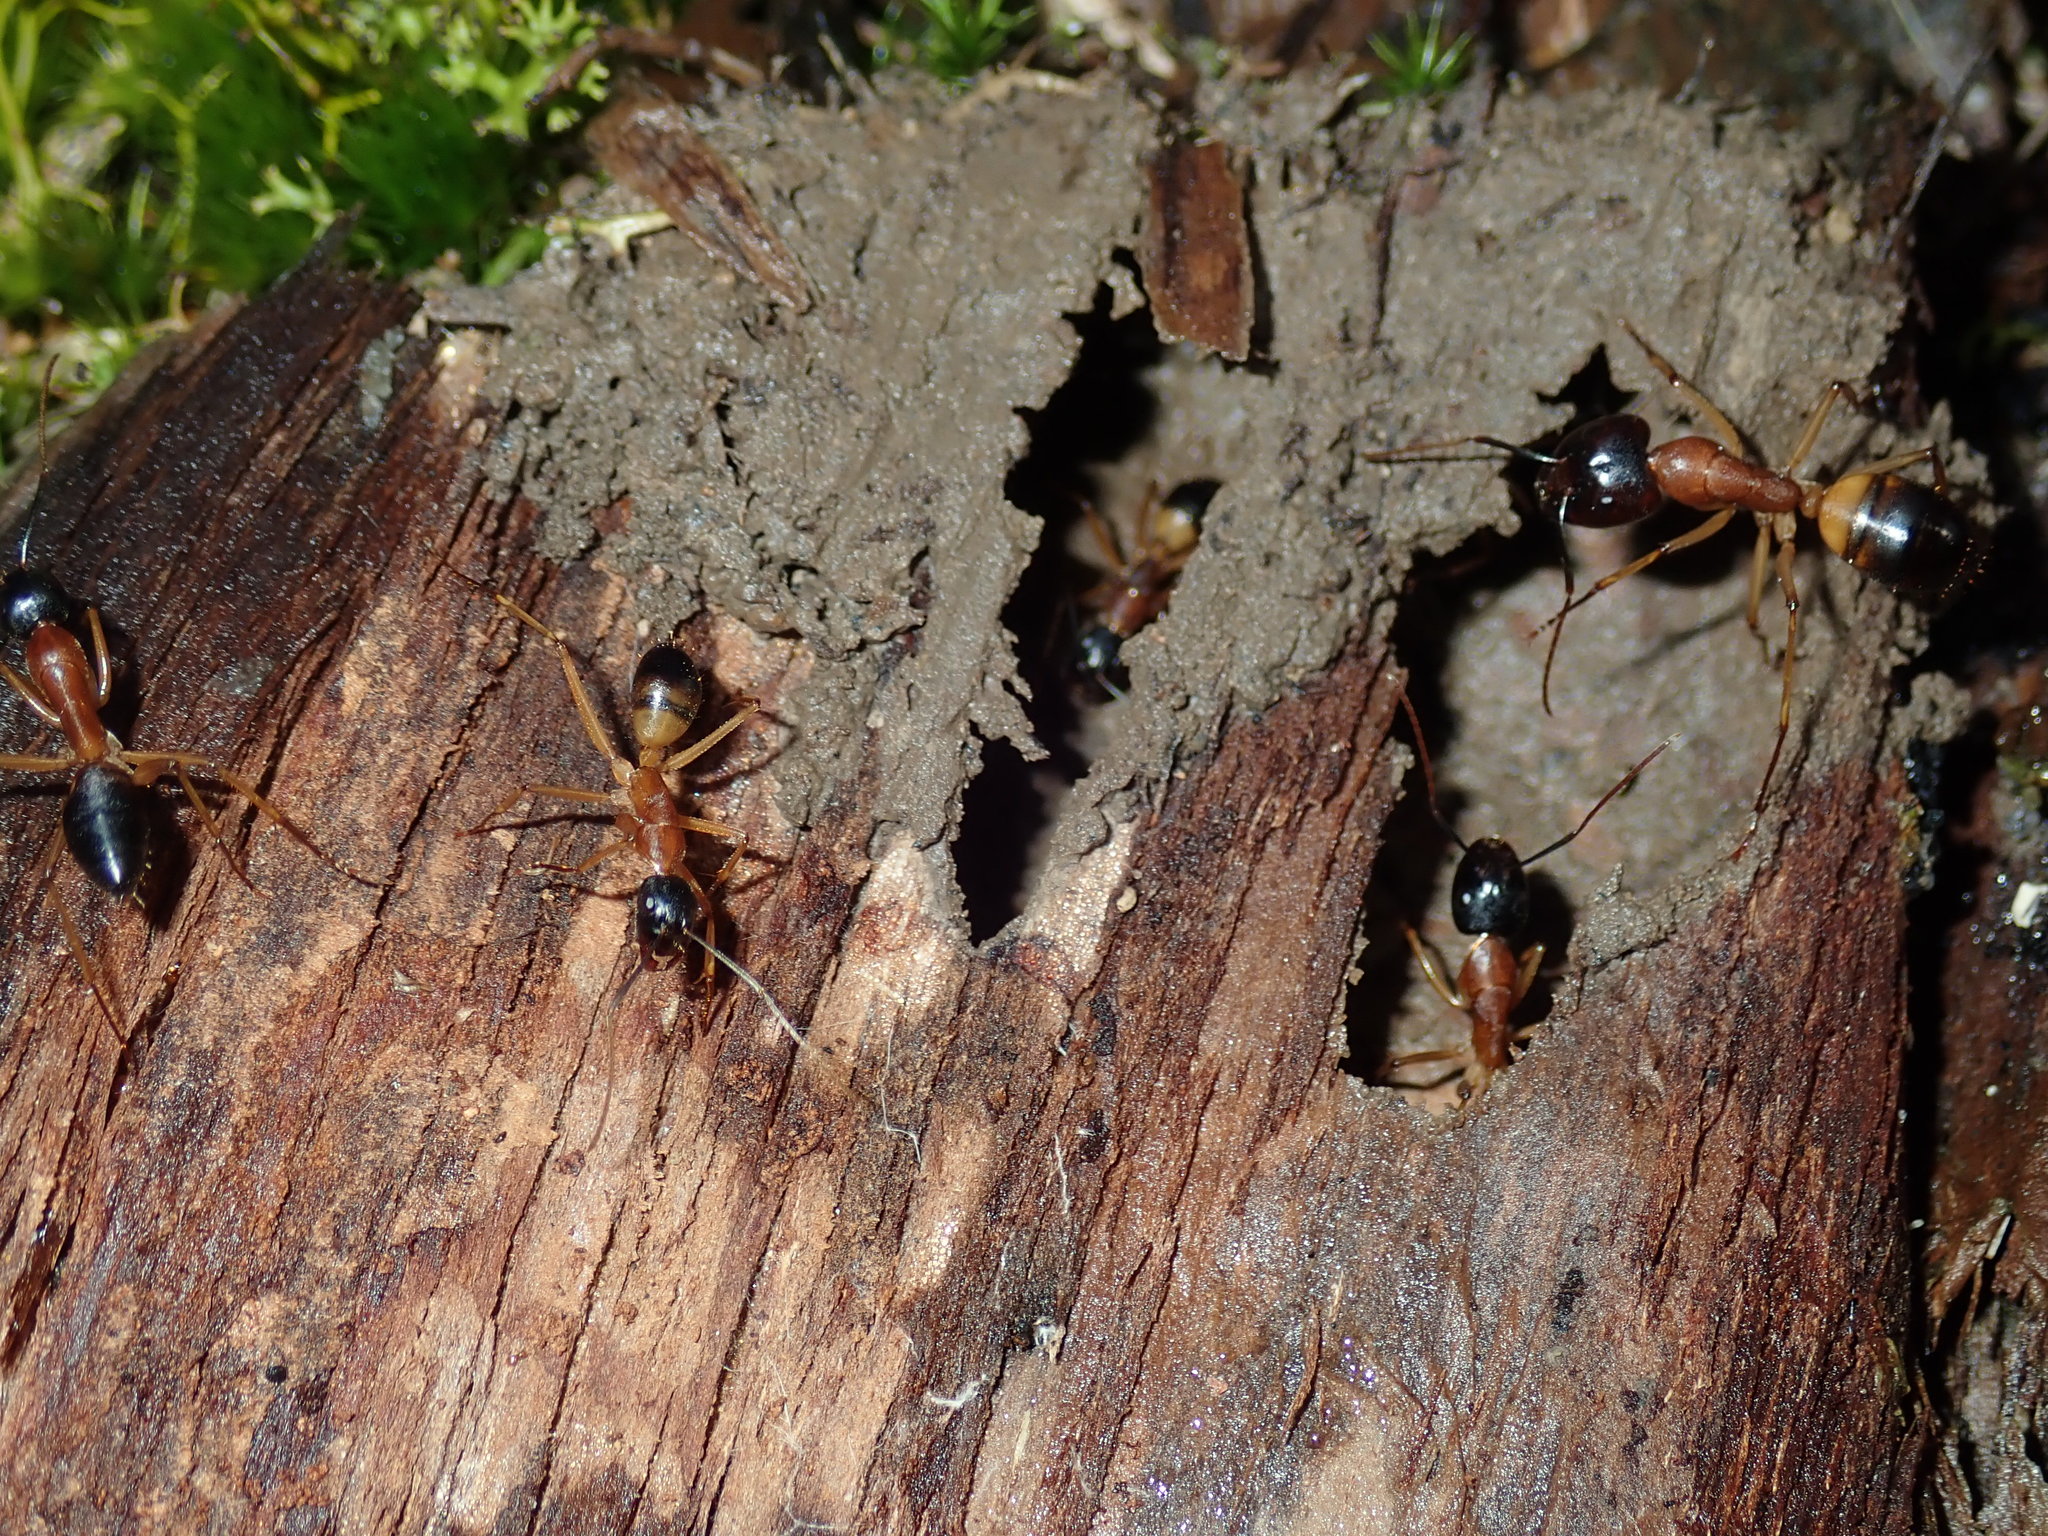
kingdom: Animalia
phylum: Arthropoda
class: Insecta
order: Hymenoptera
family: Formicidae
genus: Camponotus
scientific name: Camponotus consobrinus
